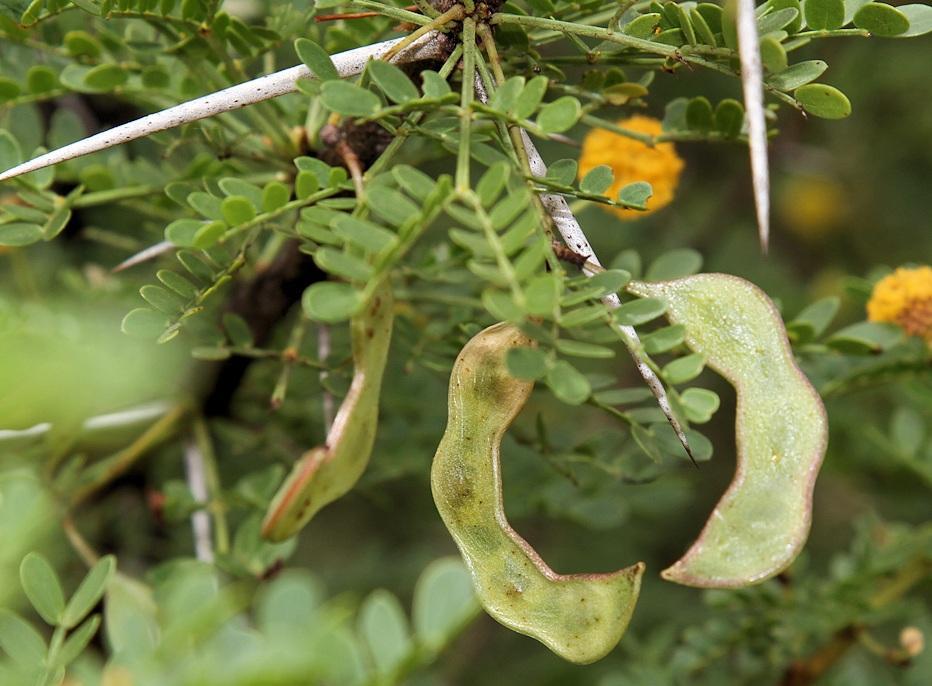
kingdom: Plantae
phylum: Tracheophyta
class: Magnoliopsida
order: Fabales
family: Fabaceae
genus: Vachellia
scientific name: Vachellia exuvialis
